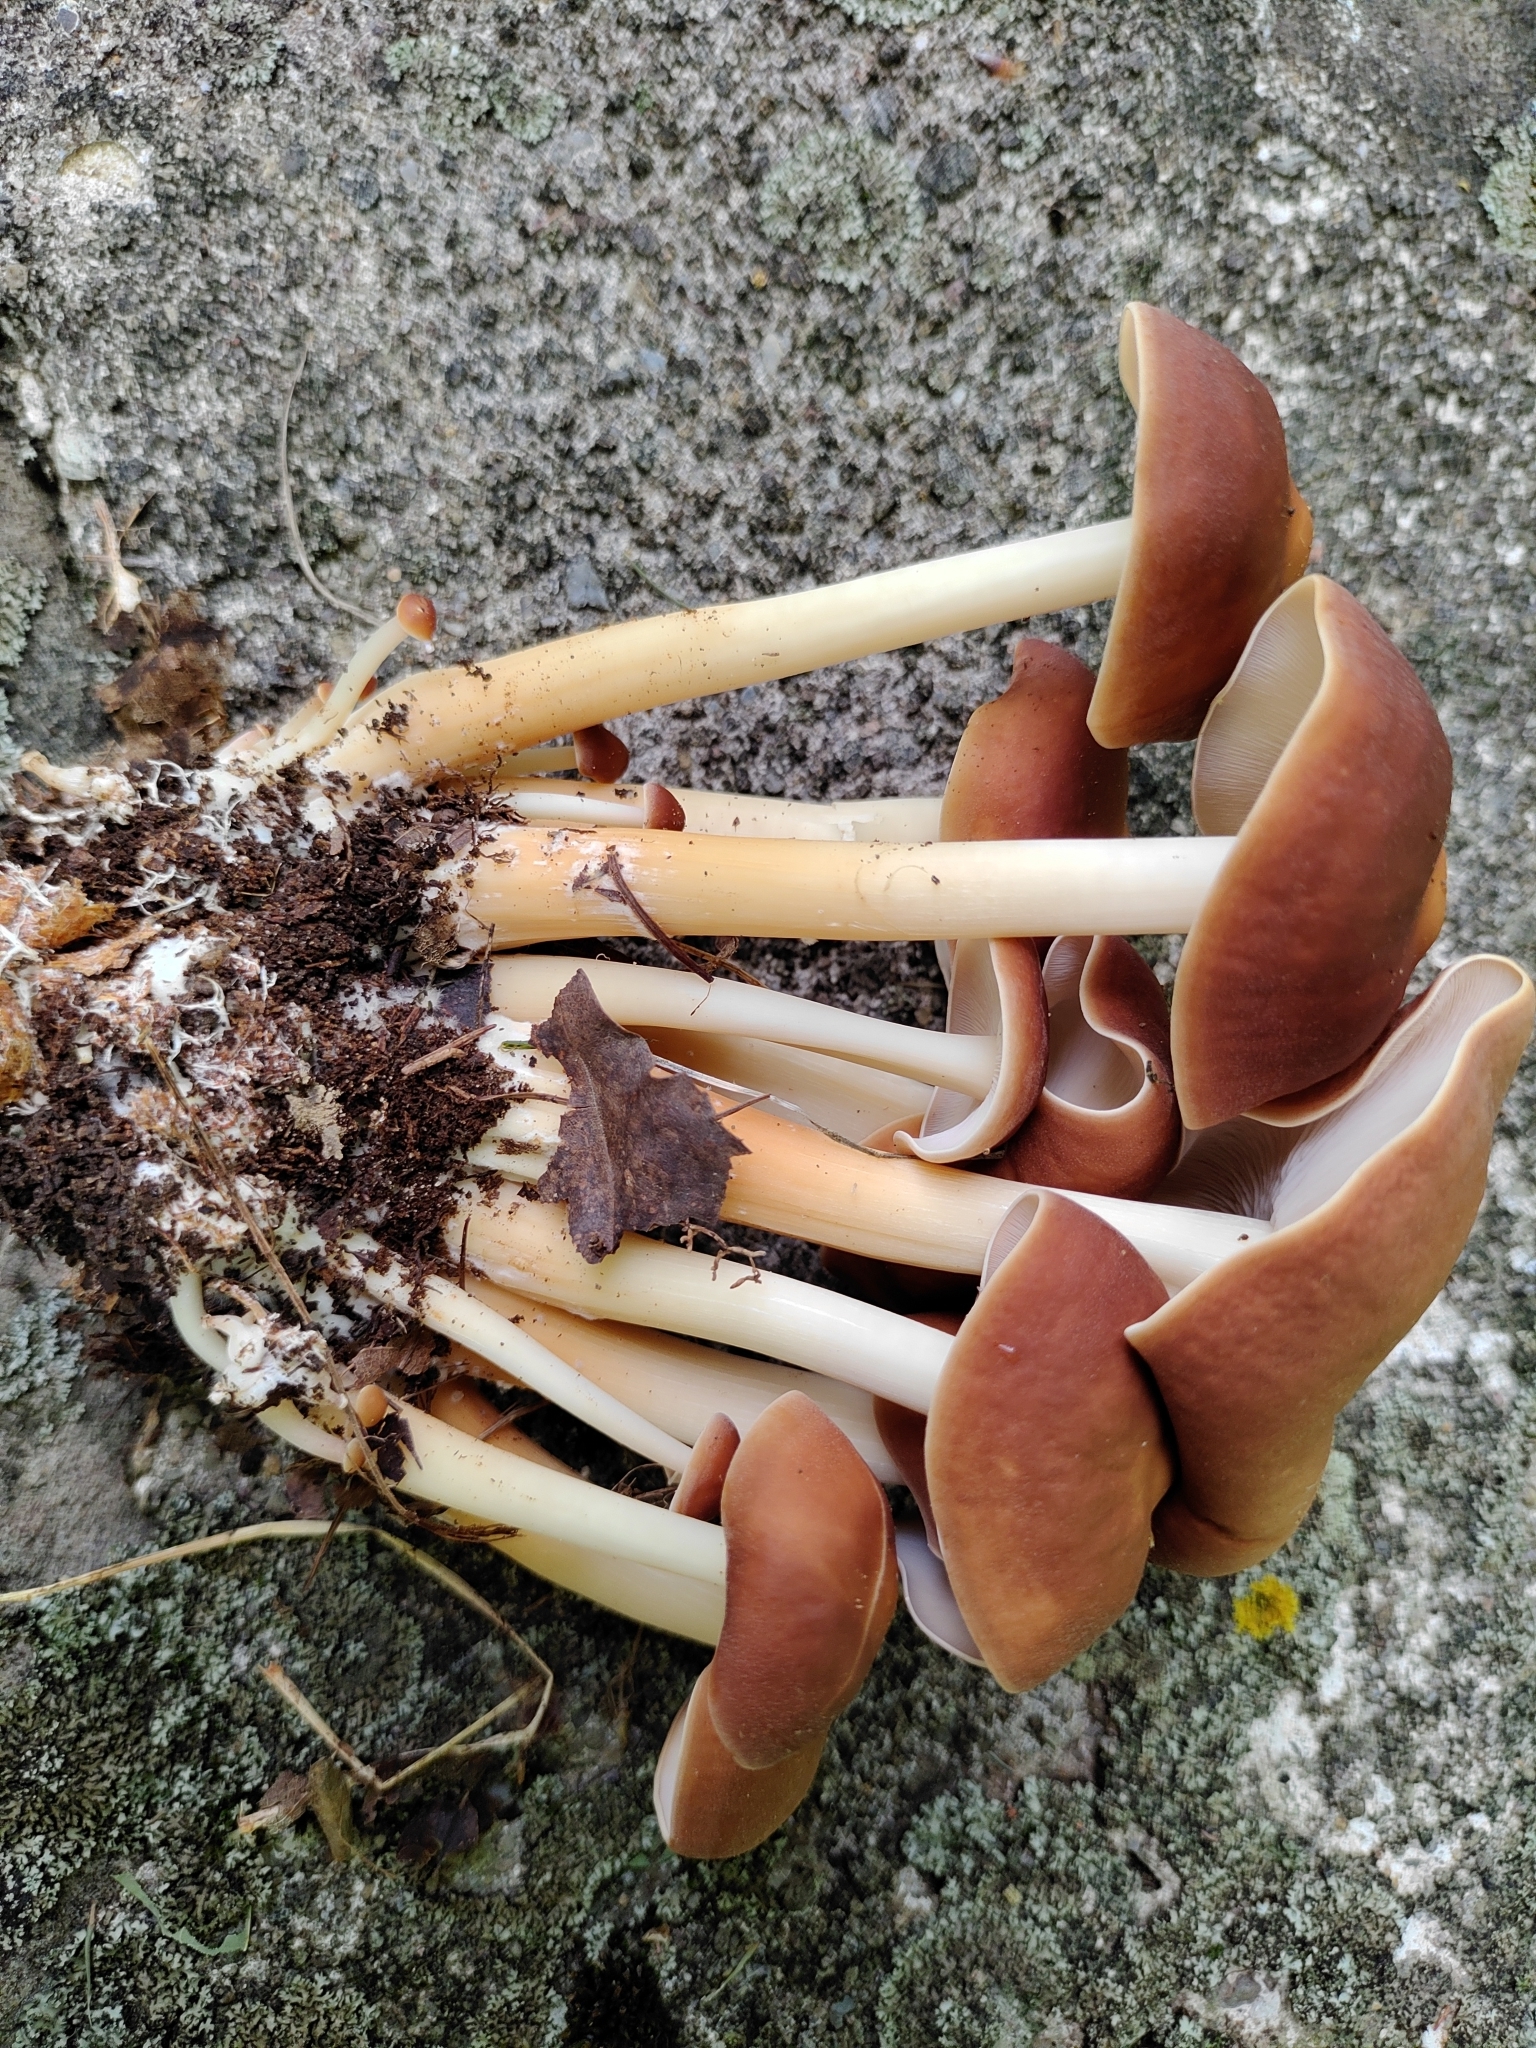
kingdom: Fungi
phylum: Basidiomycota
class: Agaricomycetes
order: Agaricales
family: Omphalotaceae
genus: Collybiopsis
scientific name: Collybiopsis luxurians
